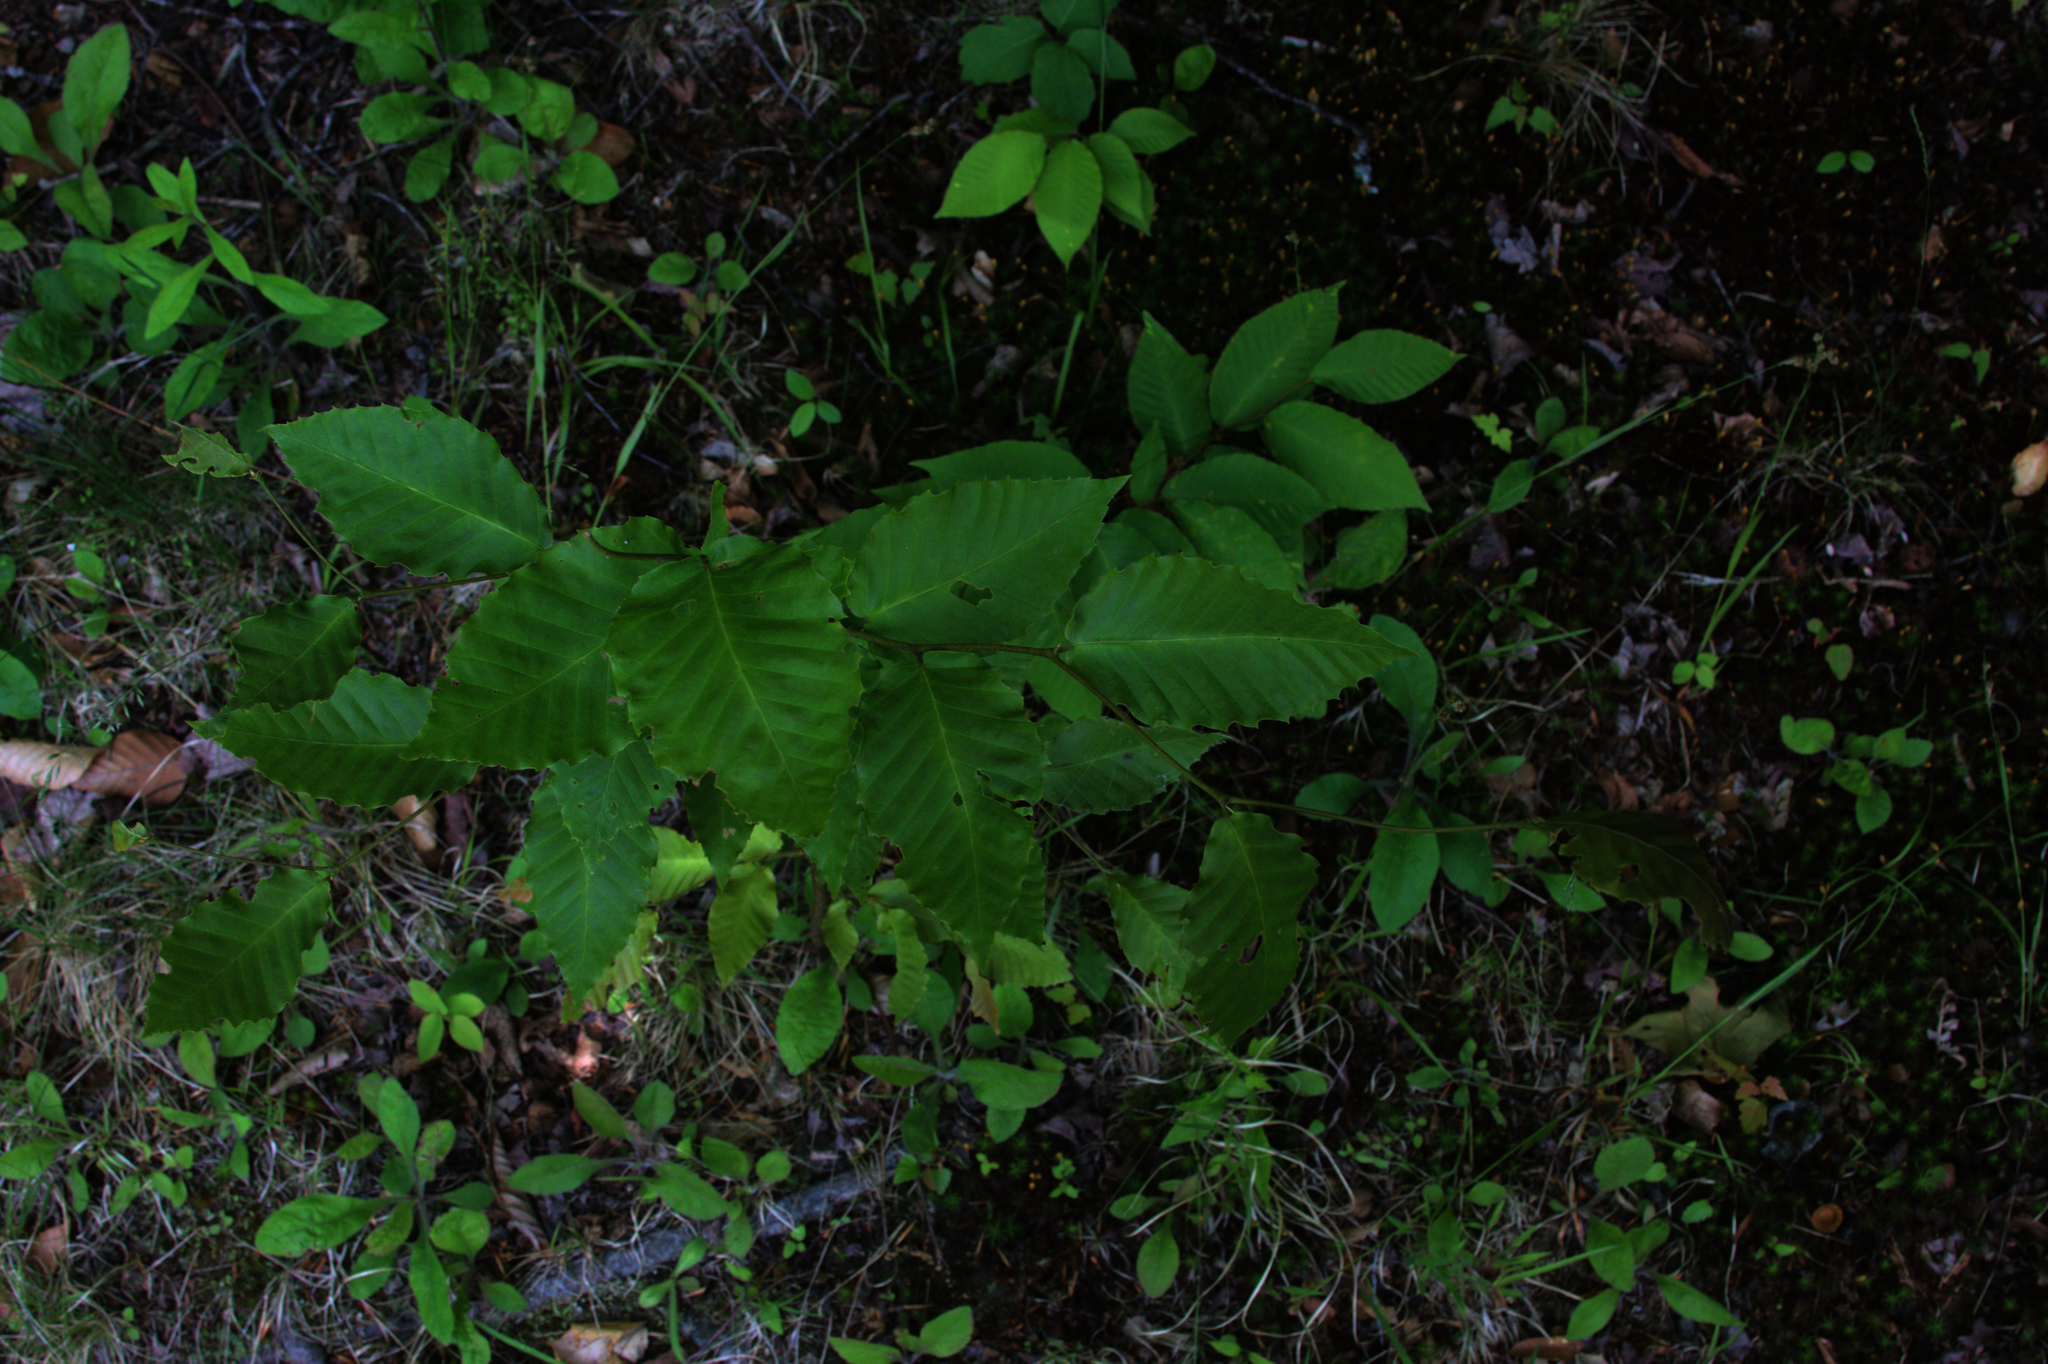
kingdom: Plantae
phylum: Tracheophyta
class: Magnoliopsida
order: Fagales
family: Fagaceae
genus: Fagus
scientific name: Fagus grandifolia
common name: American beech
